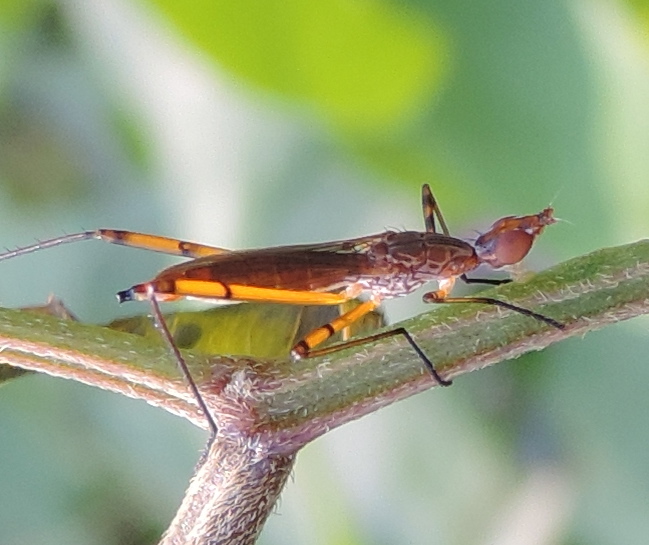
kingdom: Animalia
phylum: Arthropoda
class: Insecta
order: Diptera
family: Micropezidae
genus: Micropeza
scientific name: Micropeza
